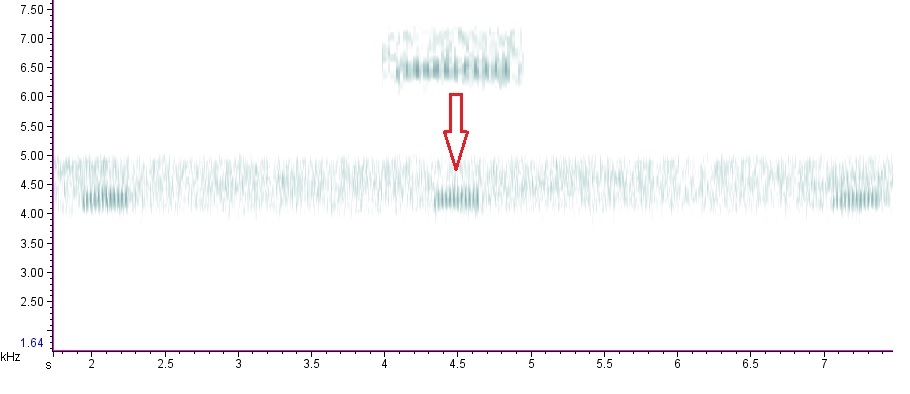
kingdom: Animalia
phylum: Arthropoda
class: Insecta
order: Orthoptera
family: Gryllidae
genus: Hapithus
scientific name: Hapithus saltator
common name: Jumping bush cricket
